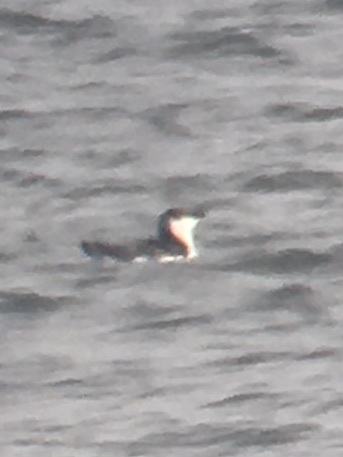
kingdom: Animalia
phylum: Chordata
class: Aves
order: Charadriiformes
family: Alcidae
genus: Alca
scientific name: Alca torda
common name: Razorbill
